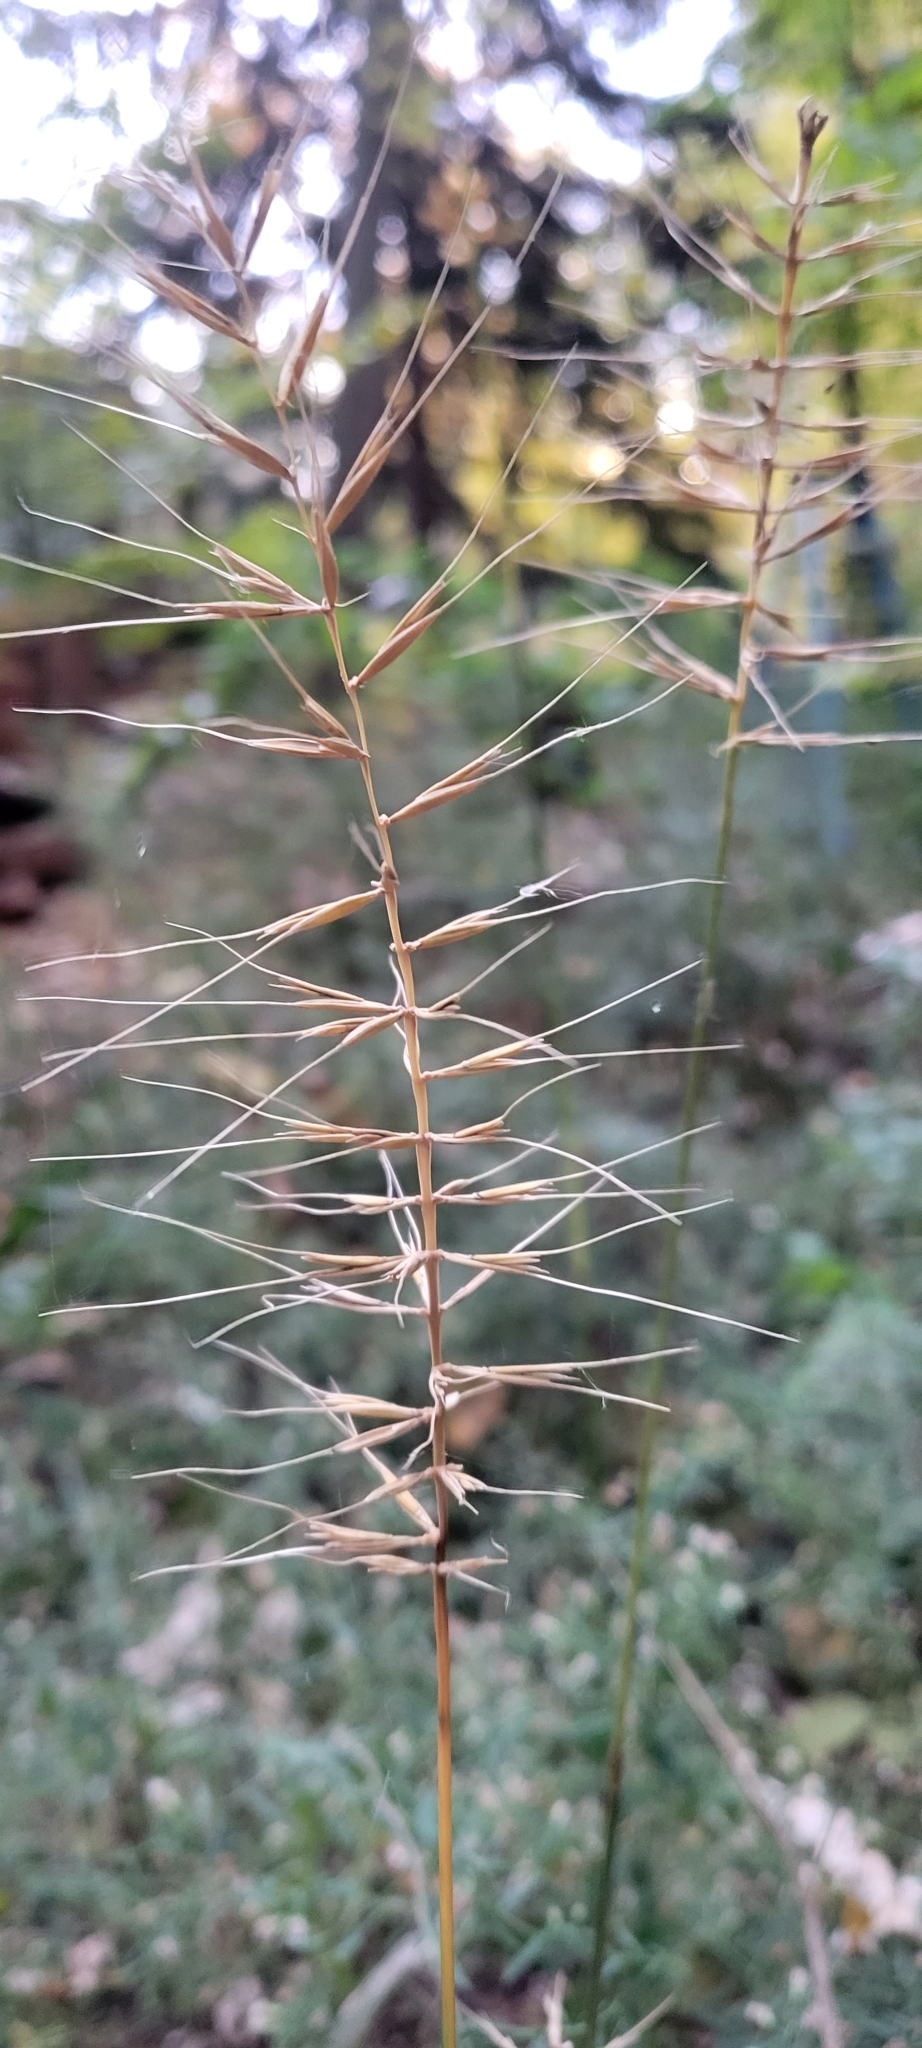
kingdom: Plantae
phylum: Tracheophyta
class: Liliopsida
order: Poales
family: Poaceae
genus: Elymus
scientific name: Elymus hystrix
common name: Bottlebrush grass
